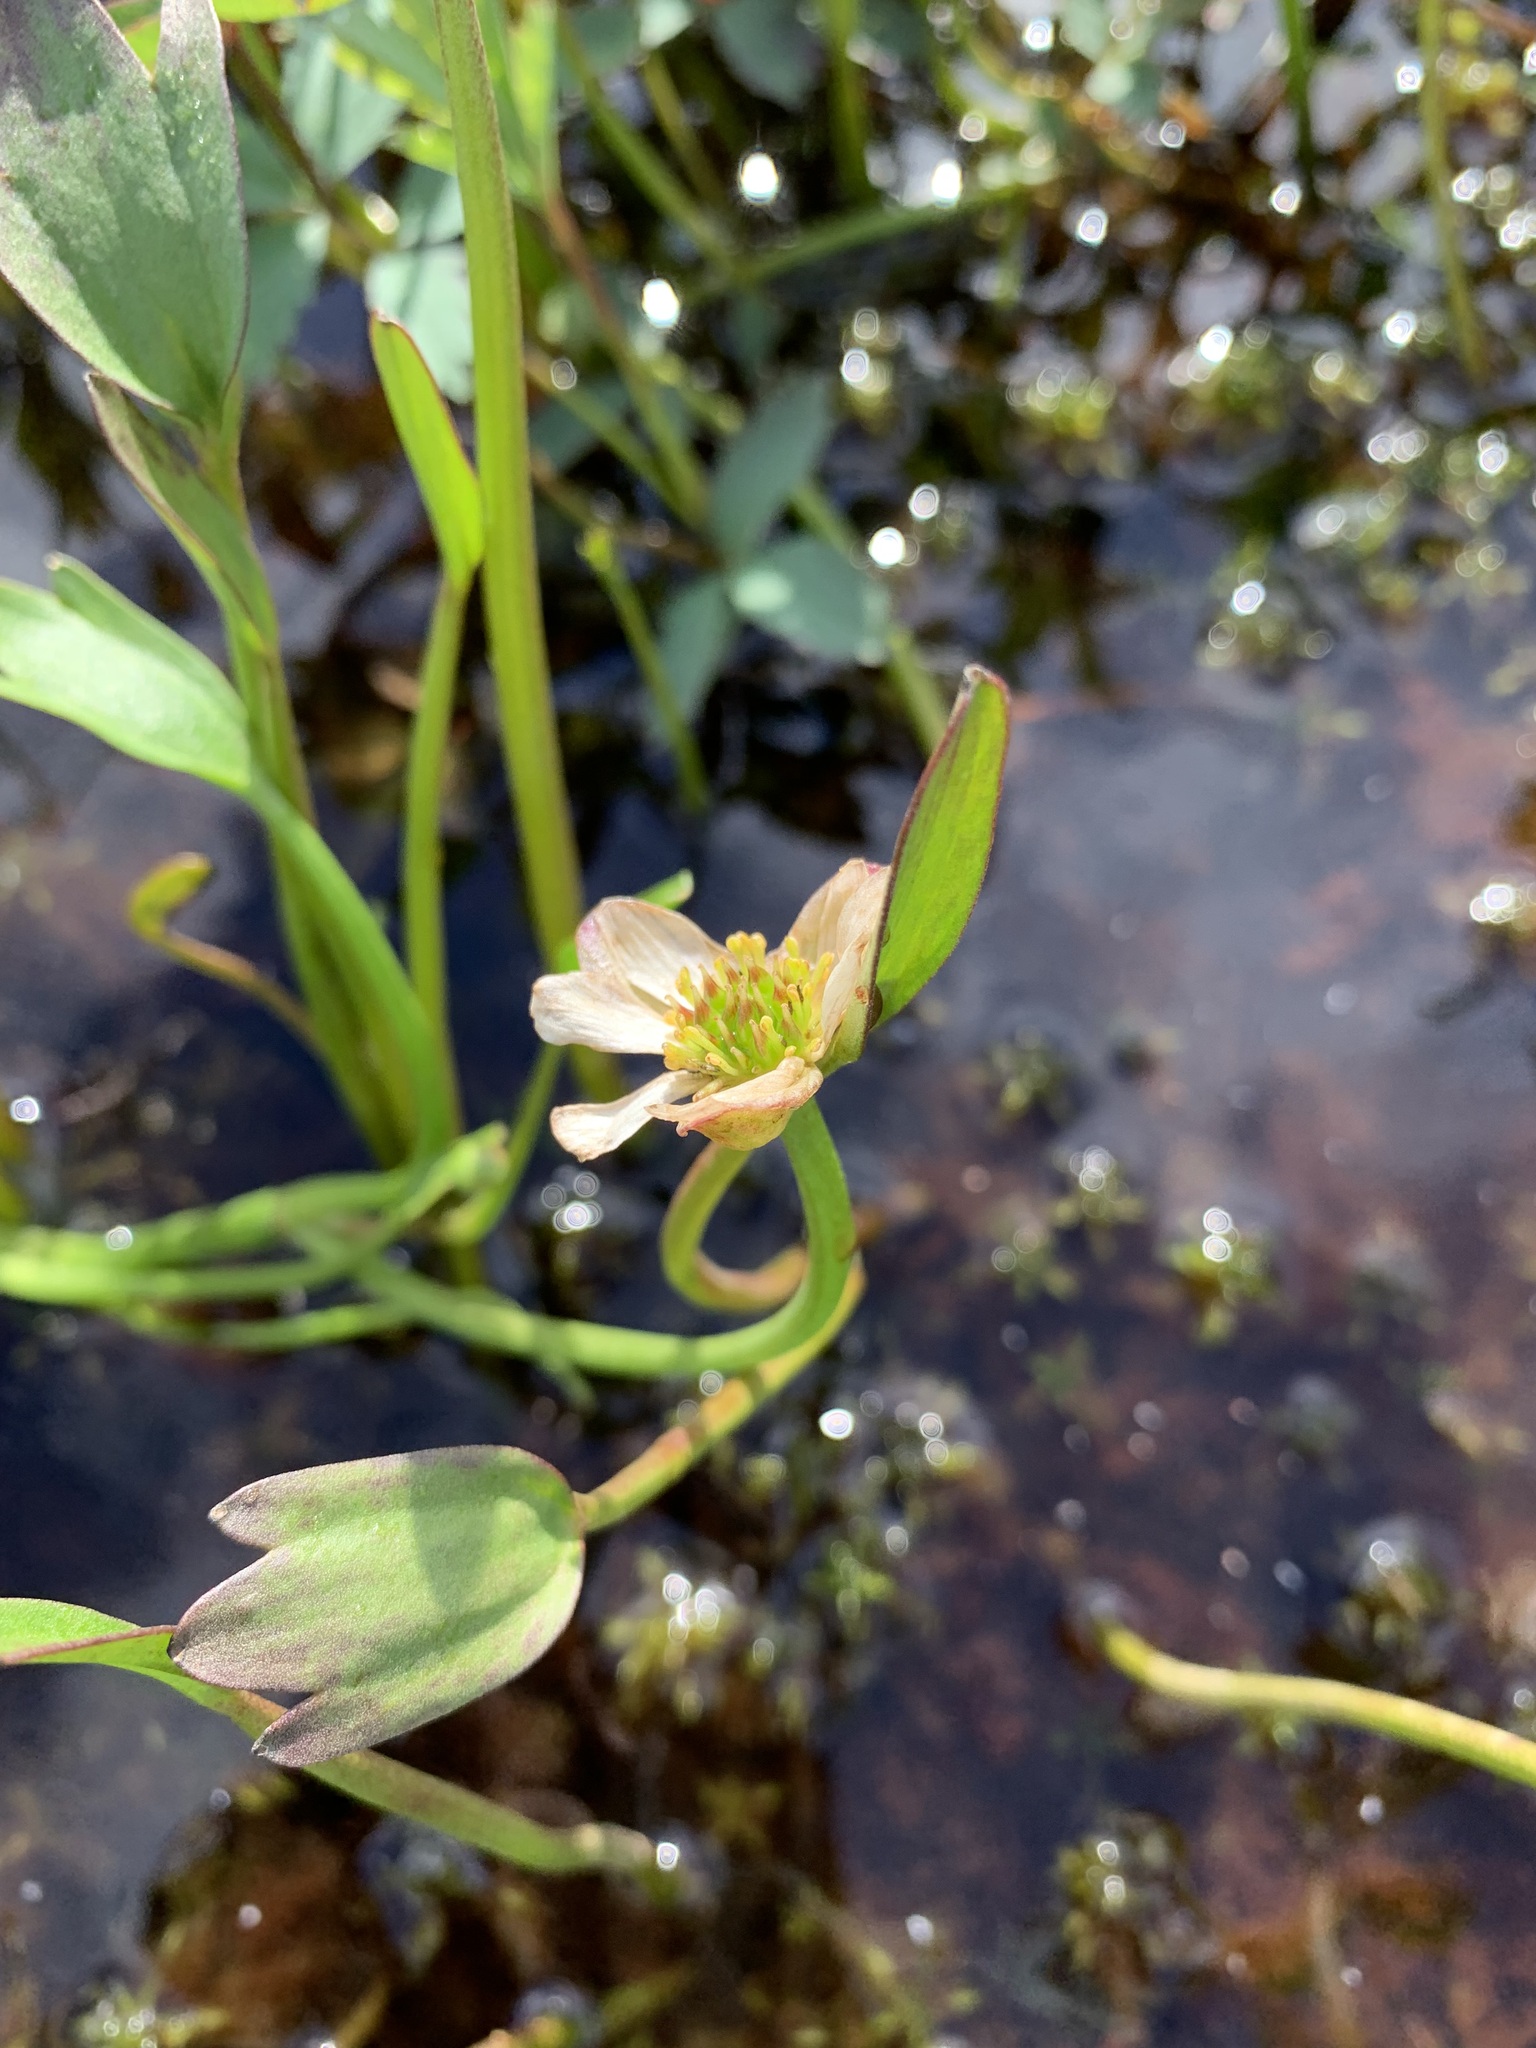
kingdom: Plantae
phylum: Tracheophyta
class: Magnoliopsida
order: Ranunculales
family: Ranunculaceae
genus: Coptidium
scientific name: Coptidium pallasii
